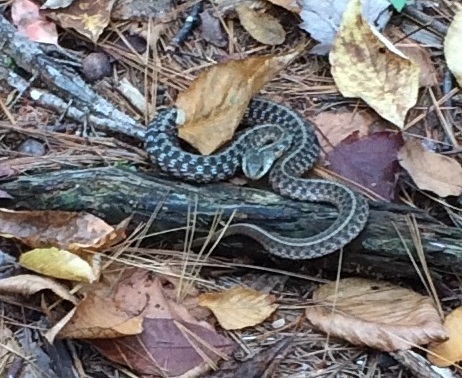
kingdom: Animalia
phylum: Chordata
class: Squamata
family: Colubridae
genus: Thamnophis
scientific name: Thamnophis sirtalis
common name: Common garter snake
